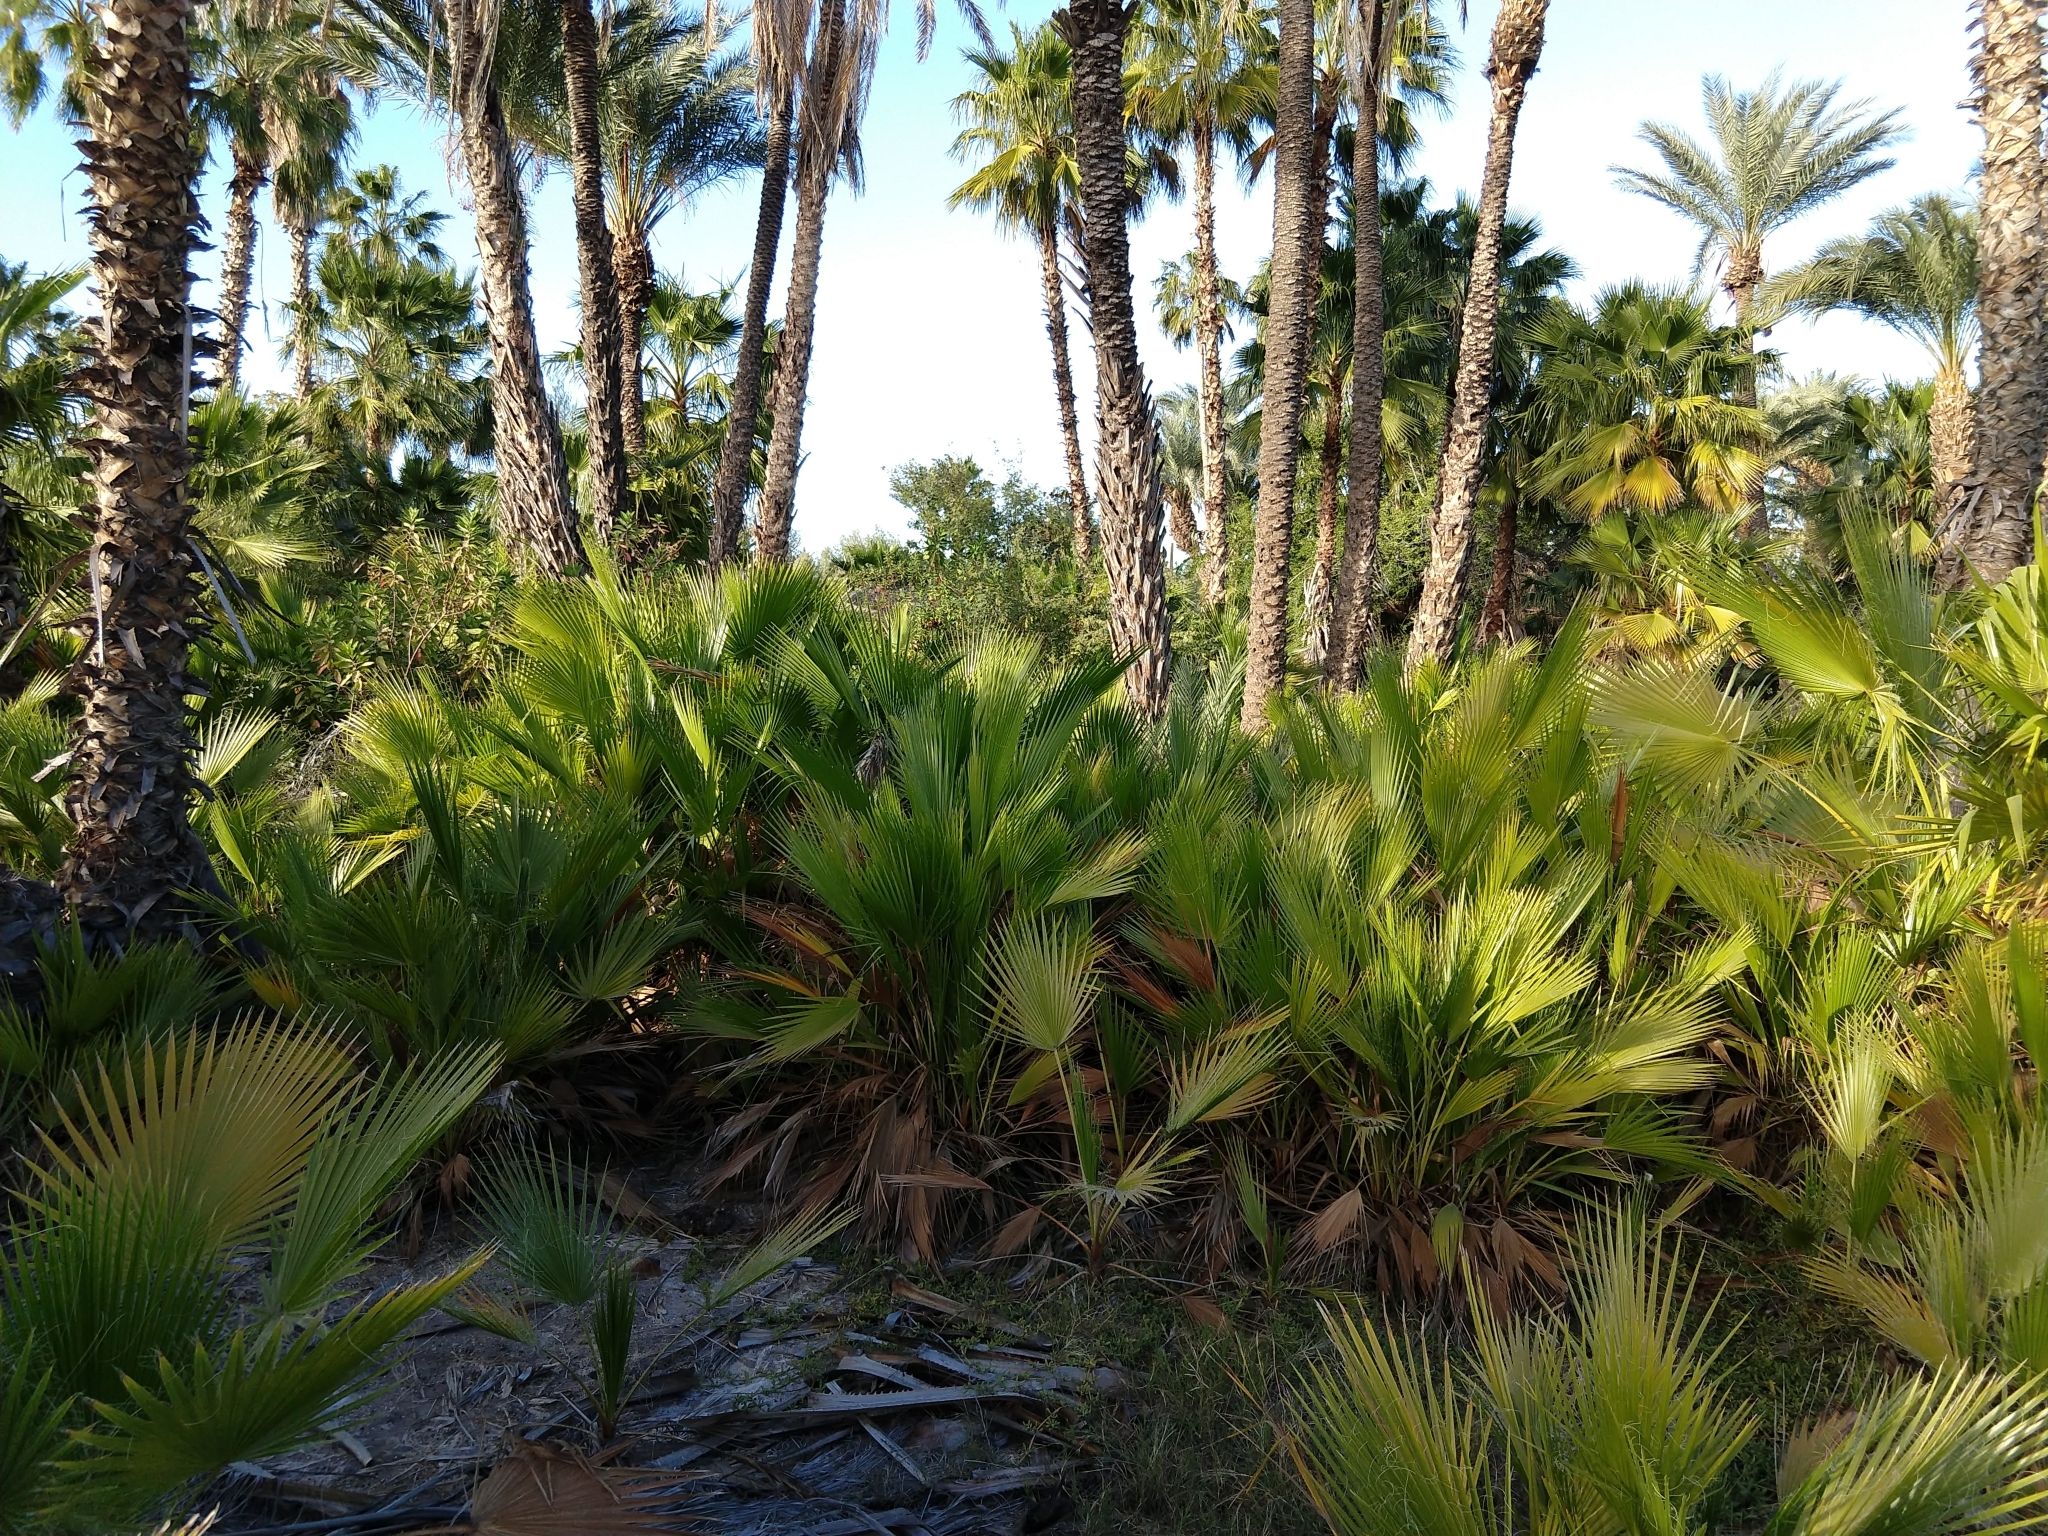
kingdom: Plantae
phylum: Tracheophyta
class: Liliopsida
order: Arecales
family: Arecaceae
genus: Washingtonia
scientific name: Washingtonia robusta
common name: Mexican fan palm
